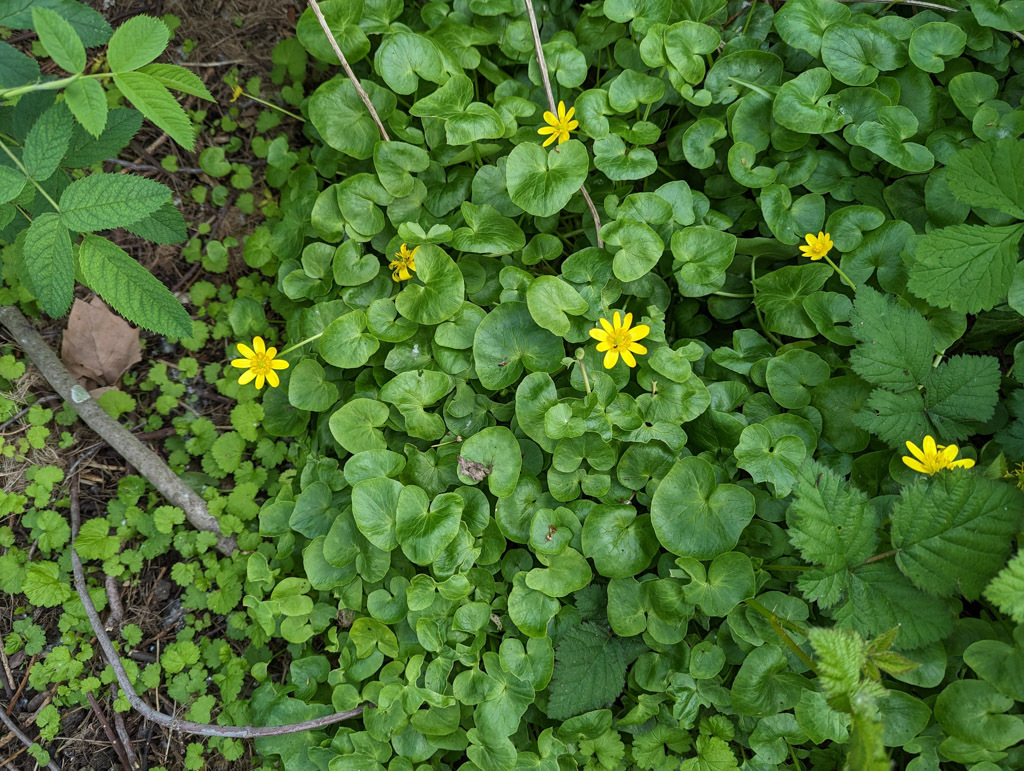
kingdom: Plantae
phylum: Tracheophyta
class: Magnoliopsida
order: Ranunculales
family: Ranunculaceae
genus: Ficaria
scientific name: Ficaria verna
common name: Lesser celandine
